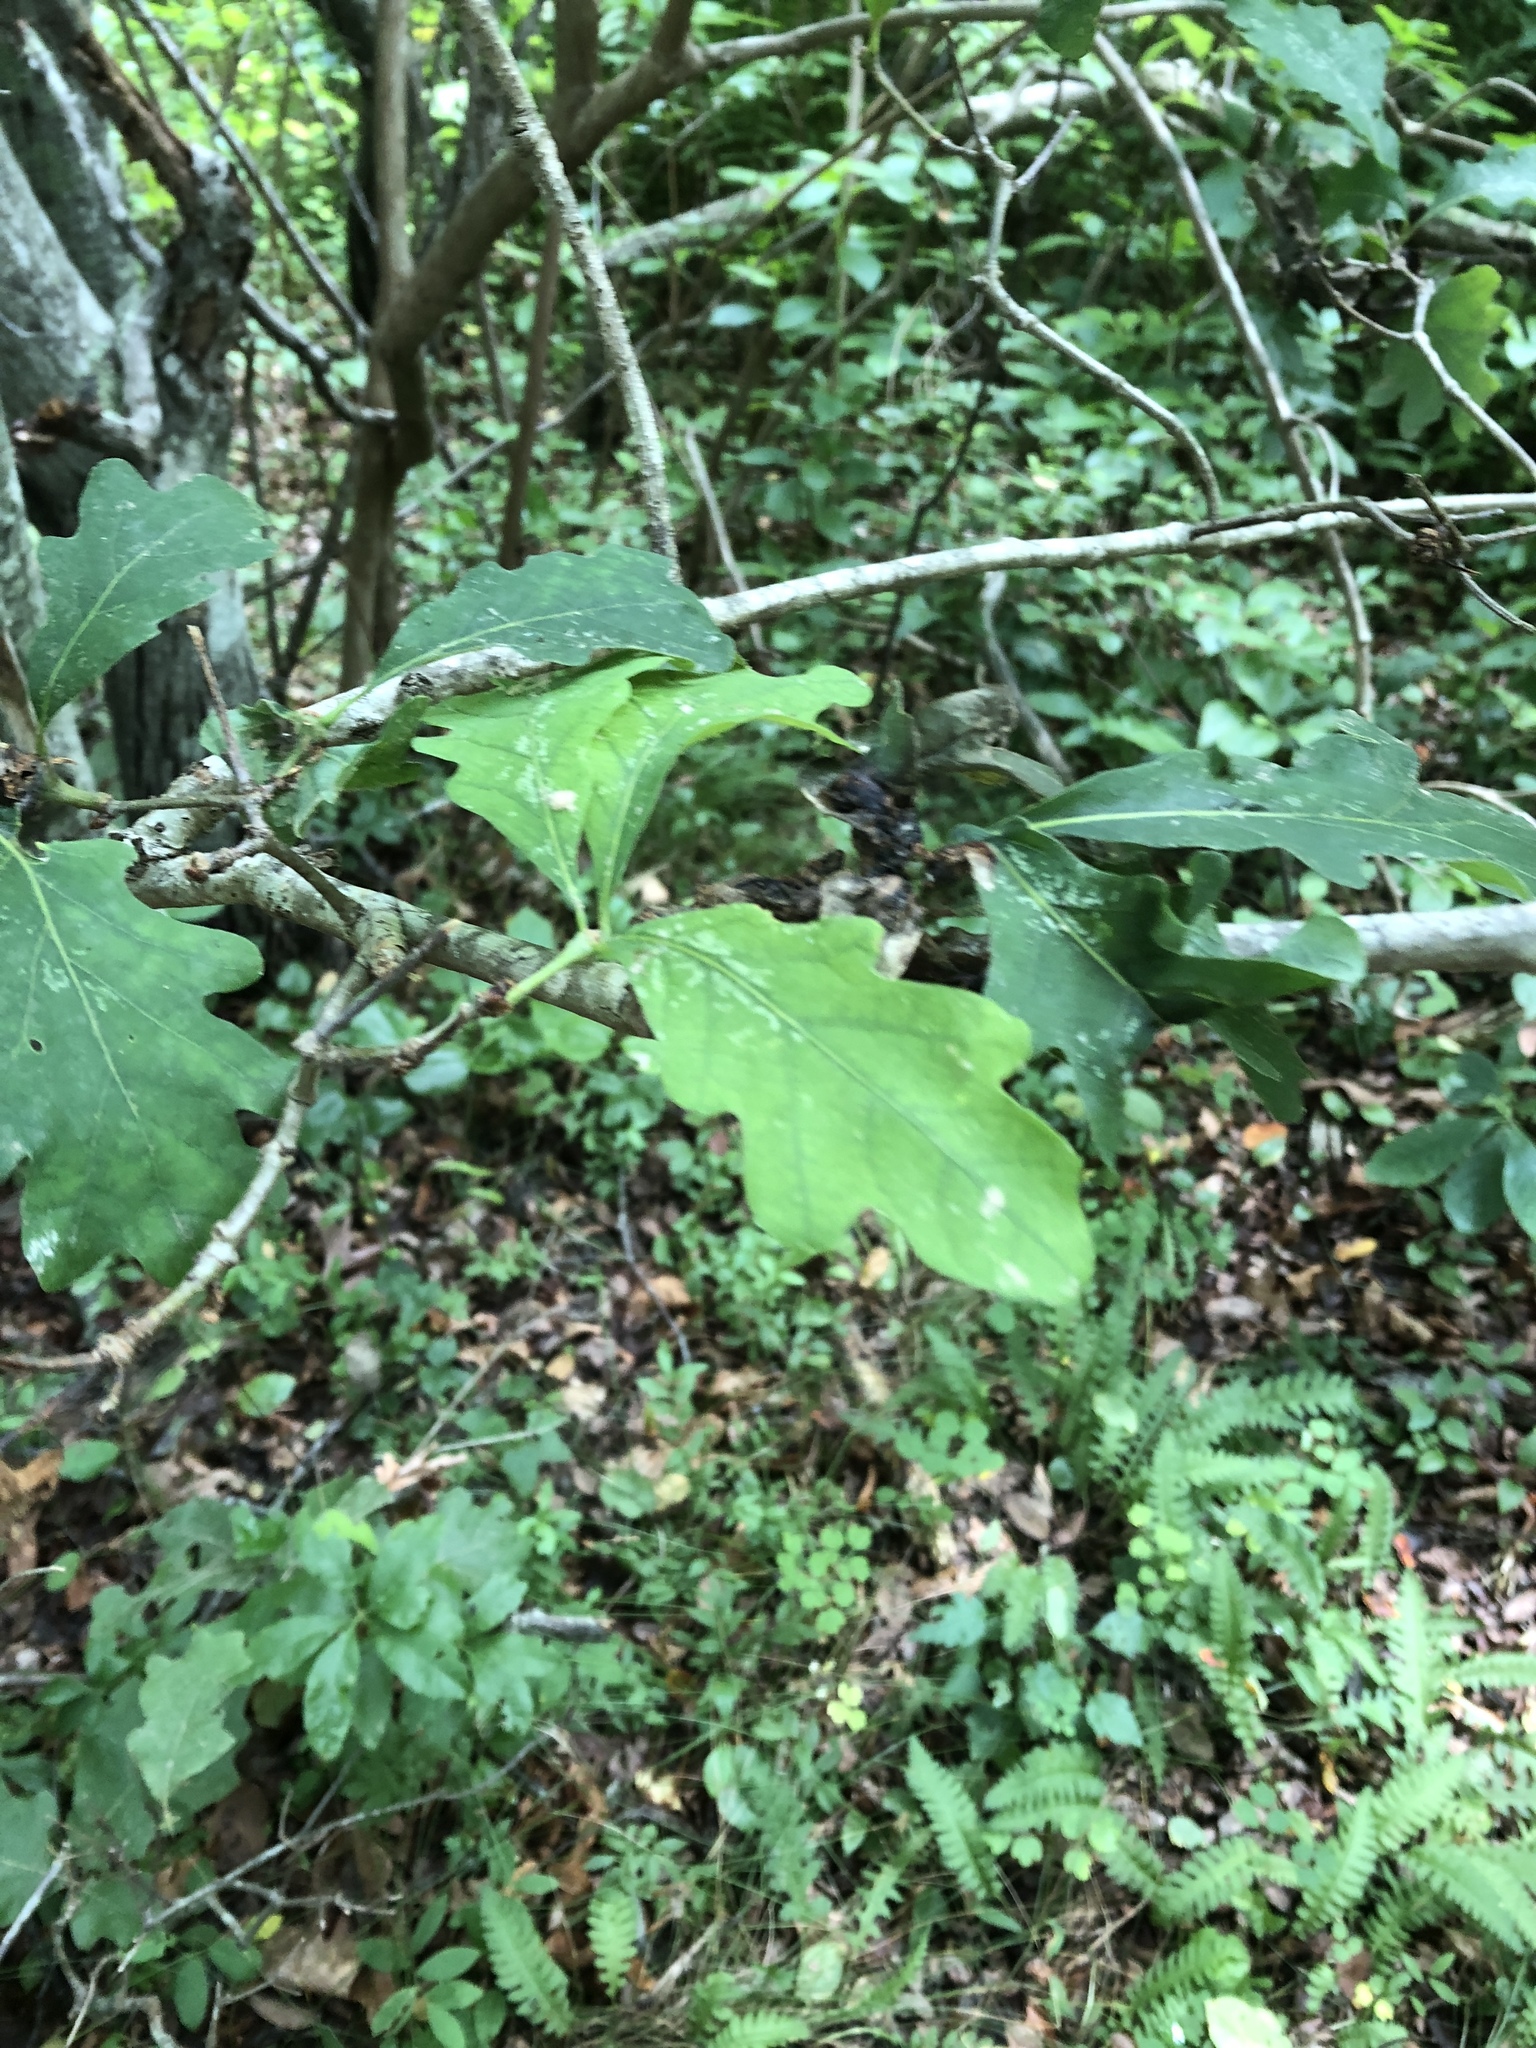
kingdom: Plantae
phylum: Tracheophyta
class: Magnoliopsida
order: Fagales
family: Fagaceae
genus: Quercus
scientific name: Quercus alba
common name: White oak
